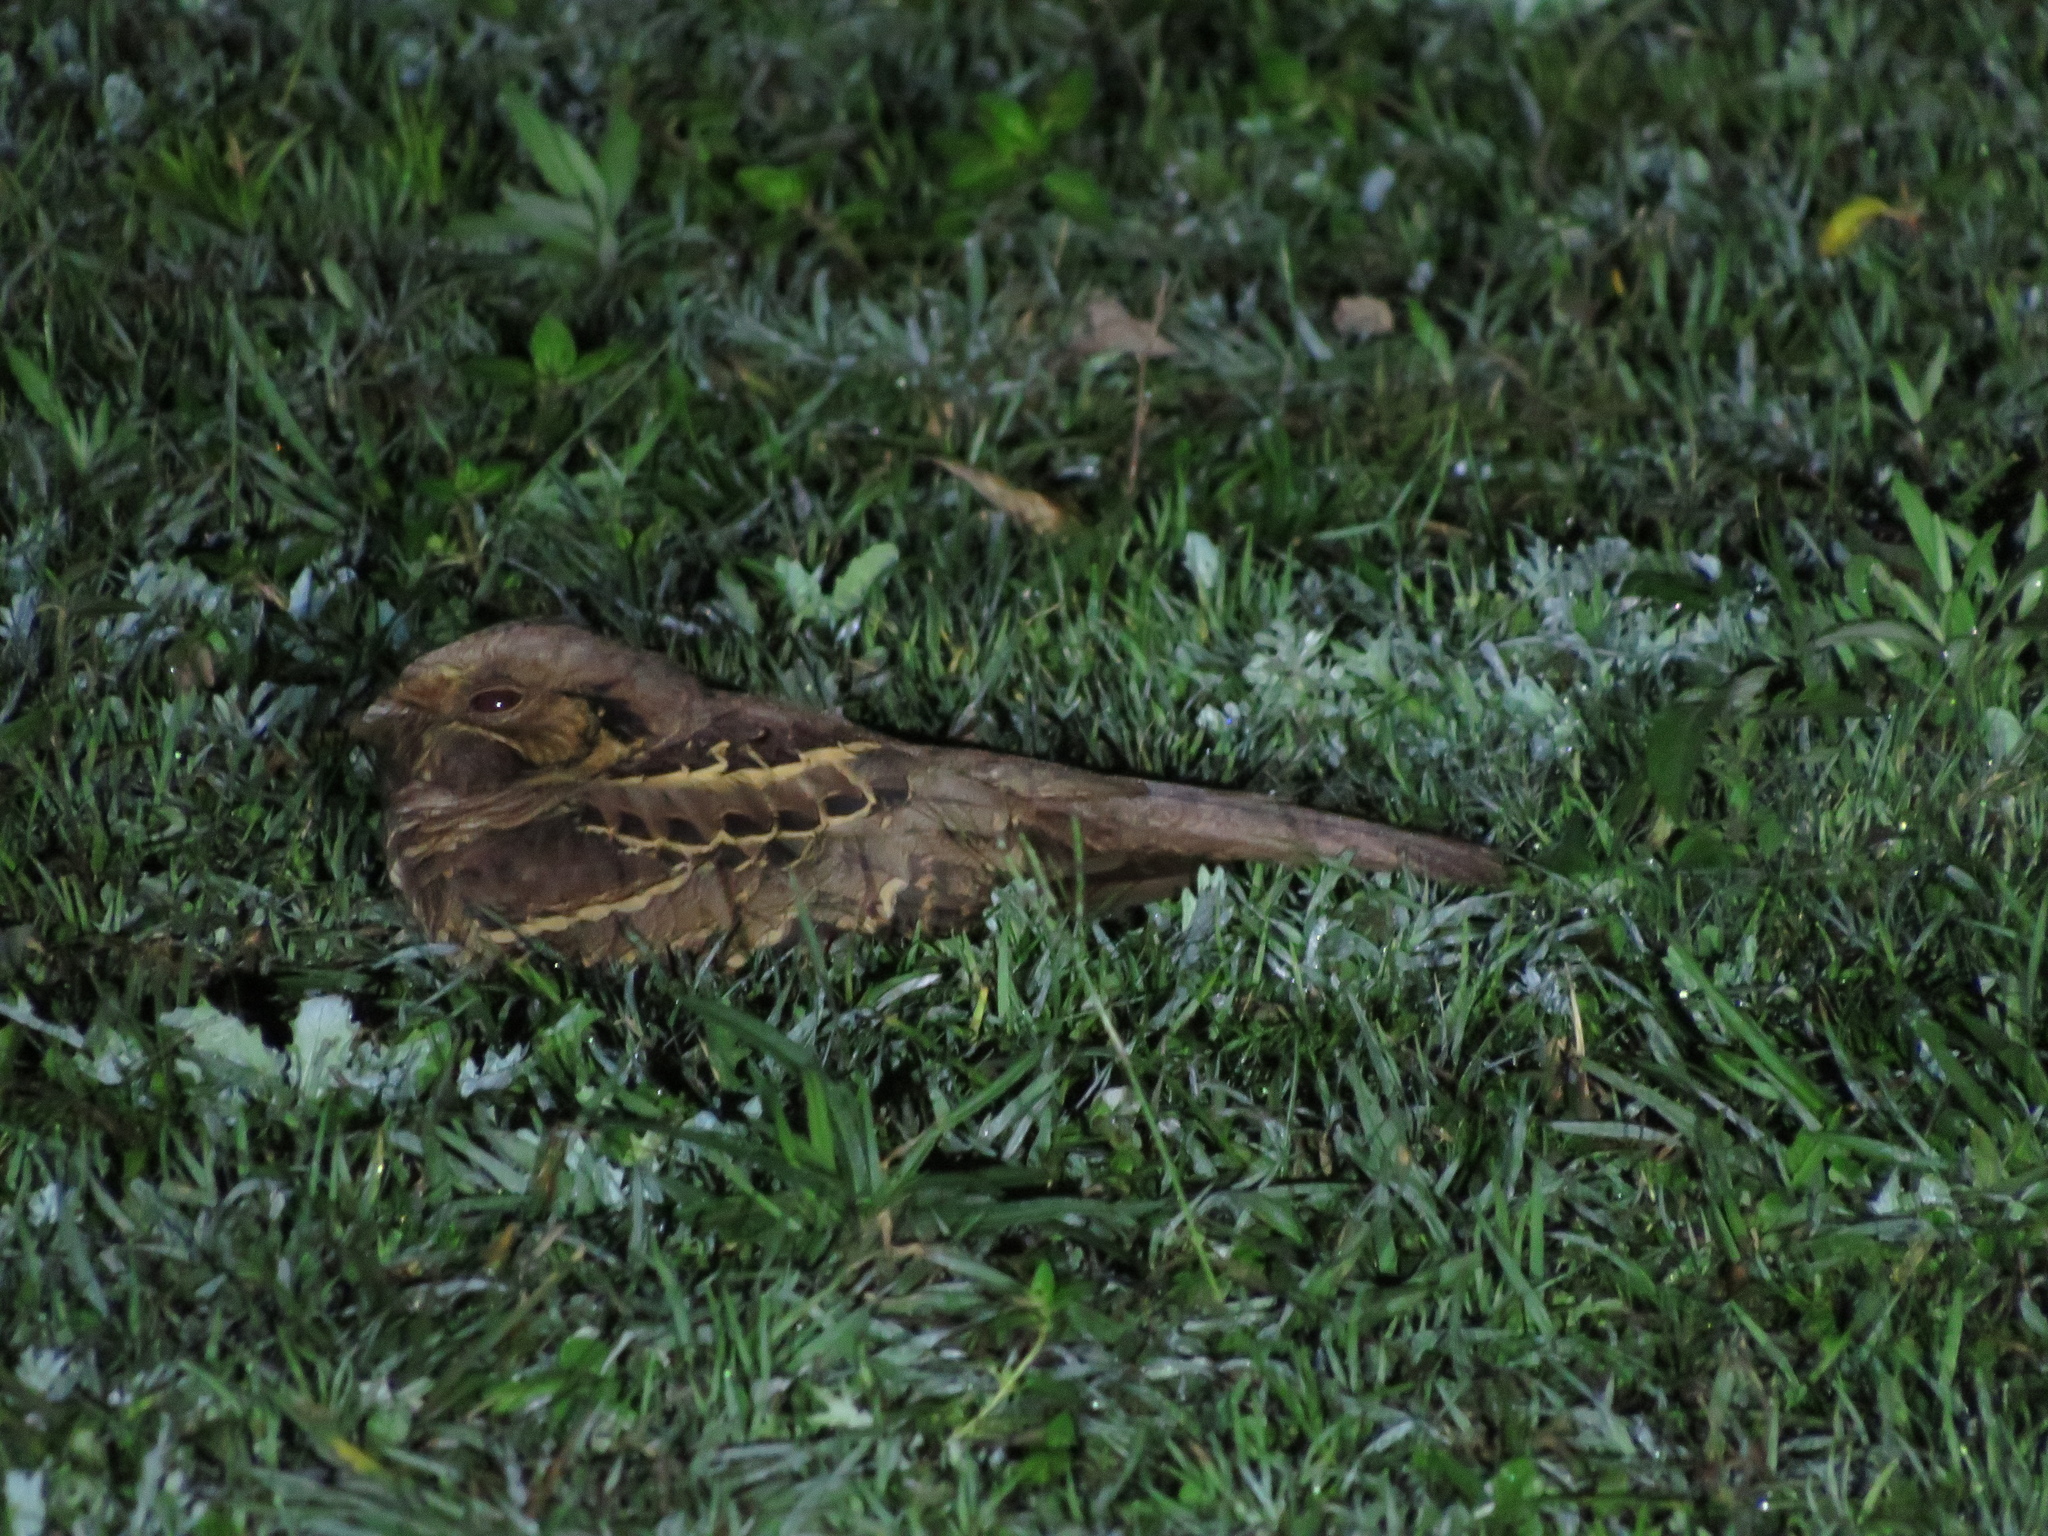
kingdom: Animalia
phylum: Chordata
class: Aves
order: Caprimulgiformes
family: Caprimulgidae
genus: Nyctidromus
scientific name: Nyctidromus albicollis
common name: Pauraque
